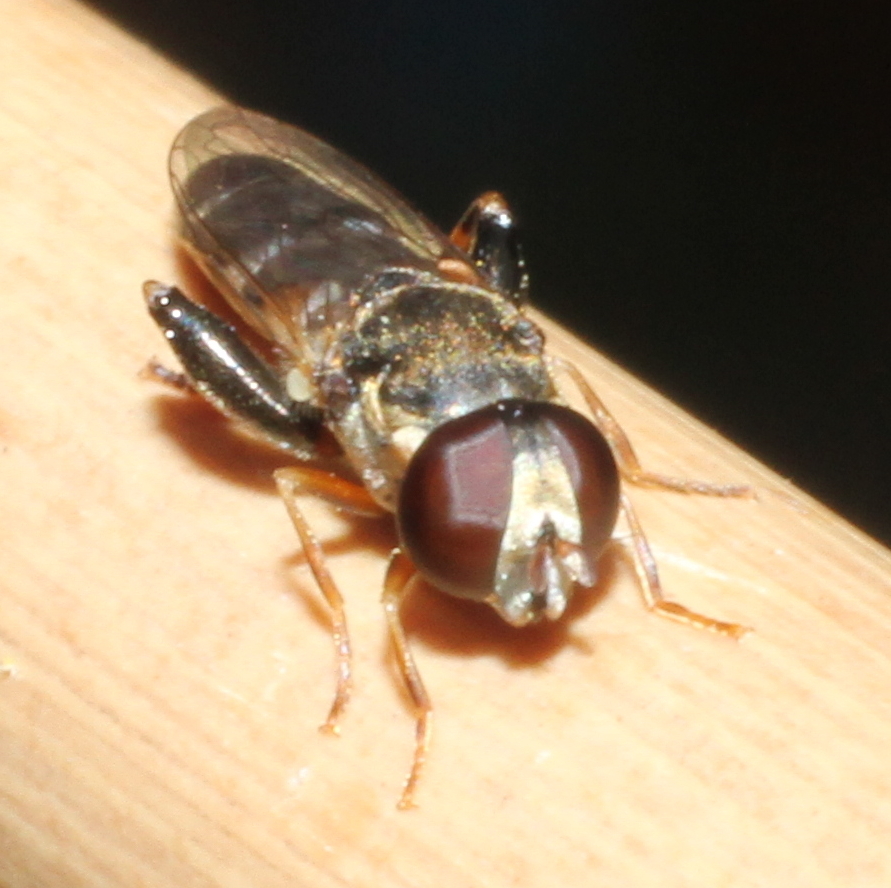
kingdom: Animalia
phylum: Arthropoda
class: Insecta
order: Diptera
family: Syrphidae
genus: Syritta
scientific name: Syritta pipiens
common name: Hover fly
